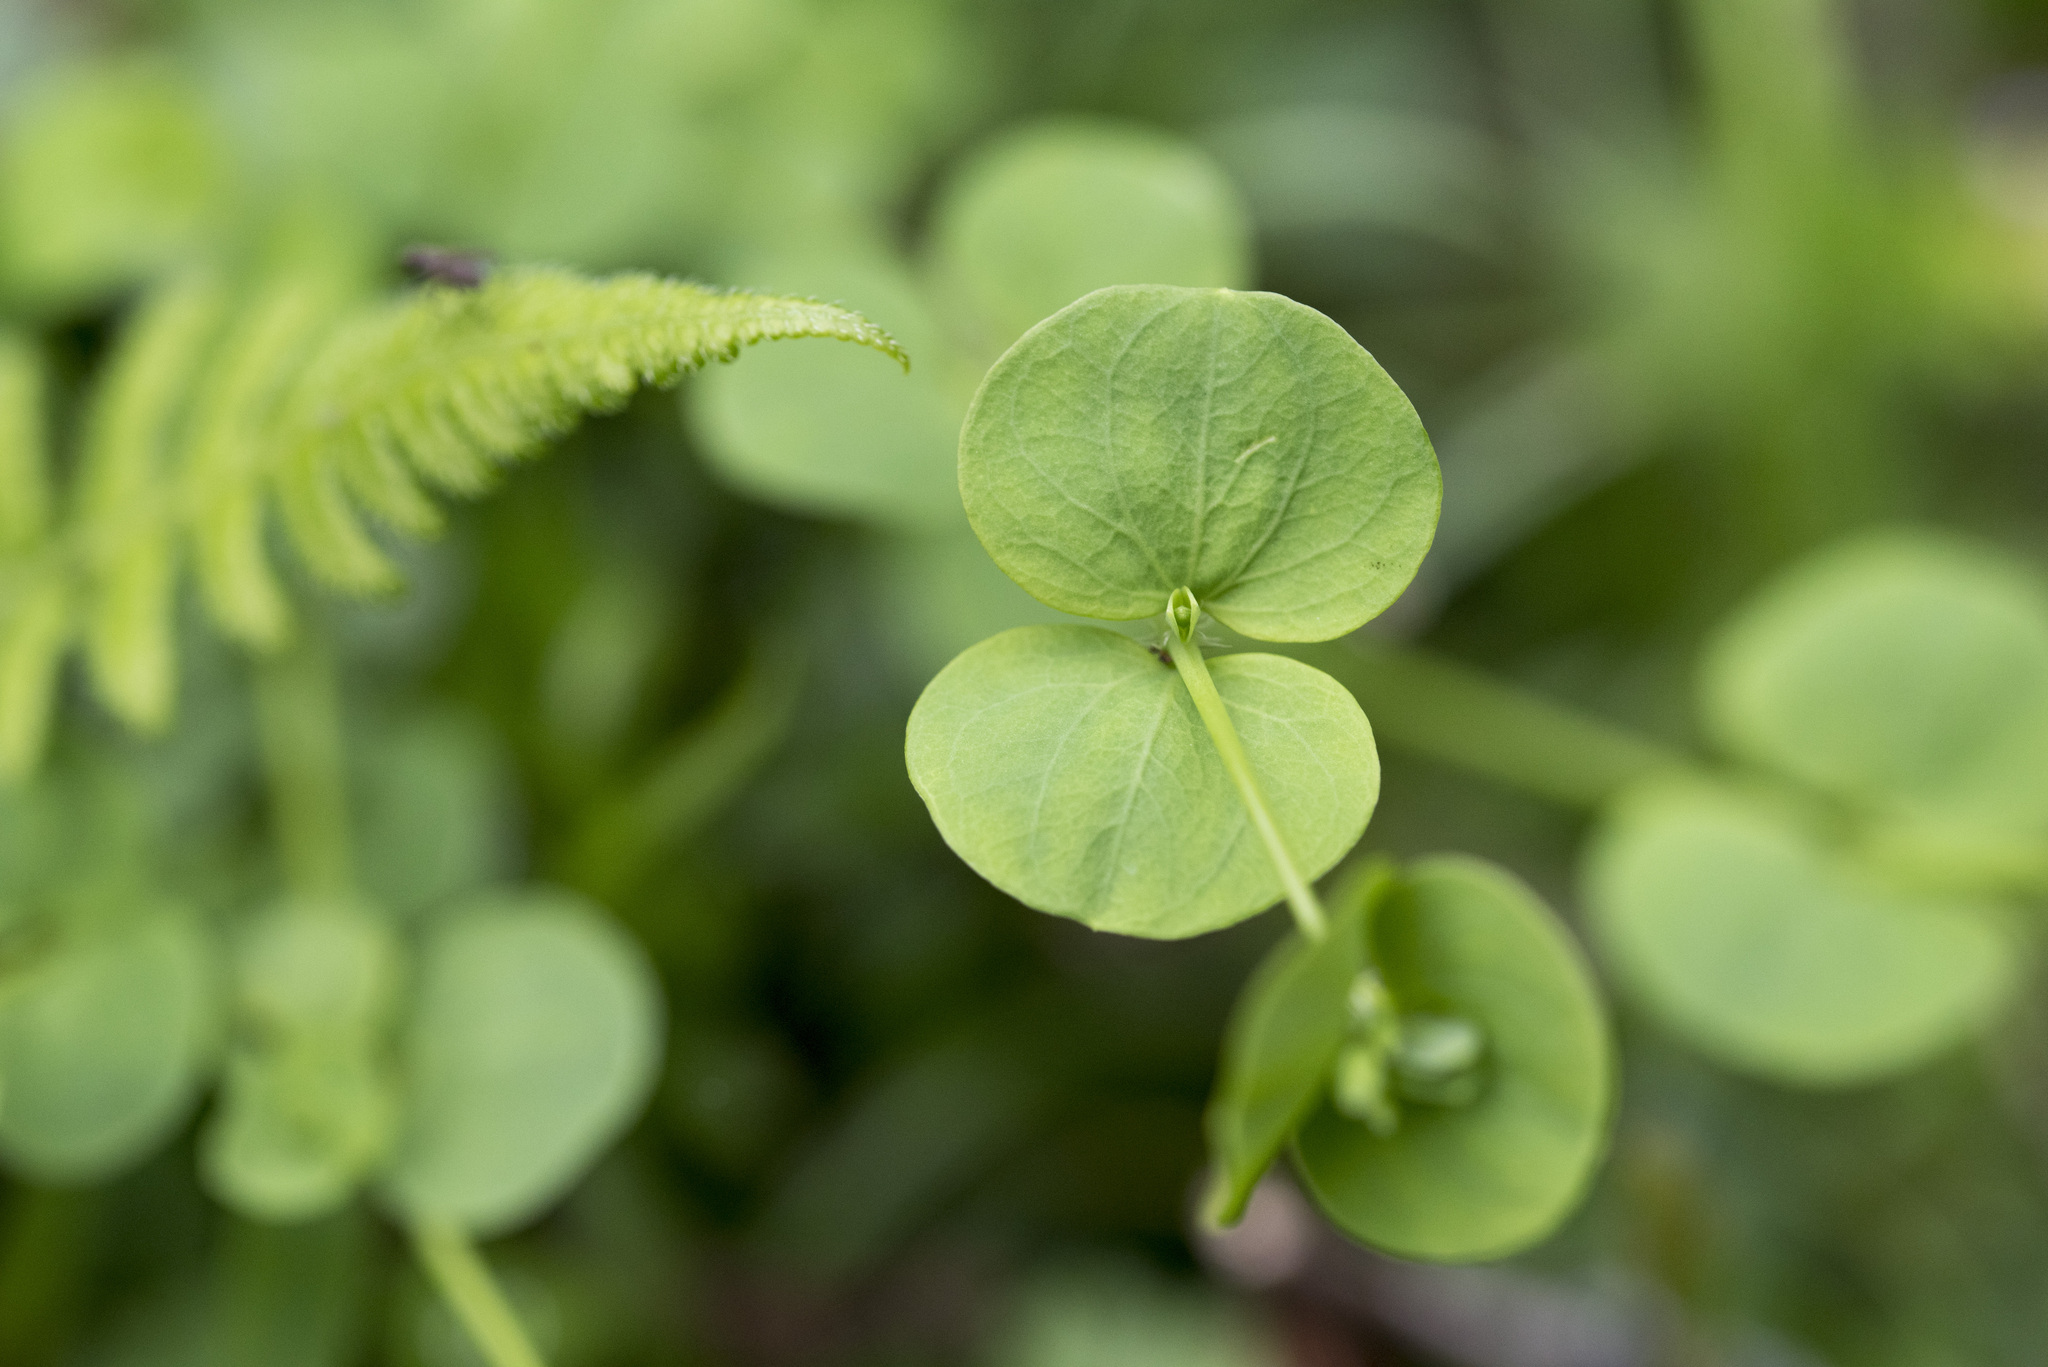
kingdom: Plantae
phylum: Tracheophyta
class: Magnoliopsida
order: Caryophyllales
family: Caryophyllaceae
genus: Drymaria
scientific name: Drymaria cordata
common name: Whitesnow
